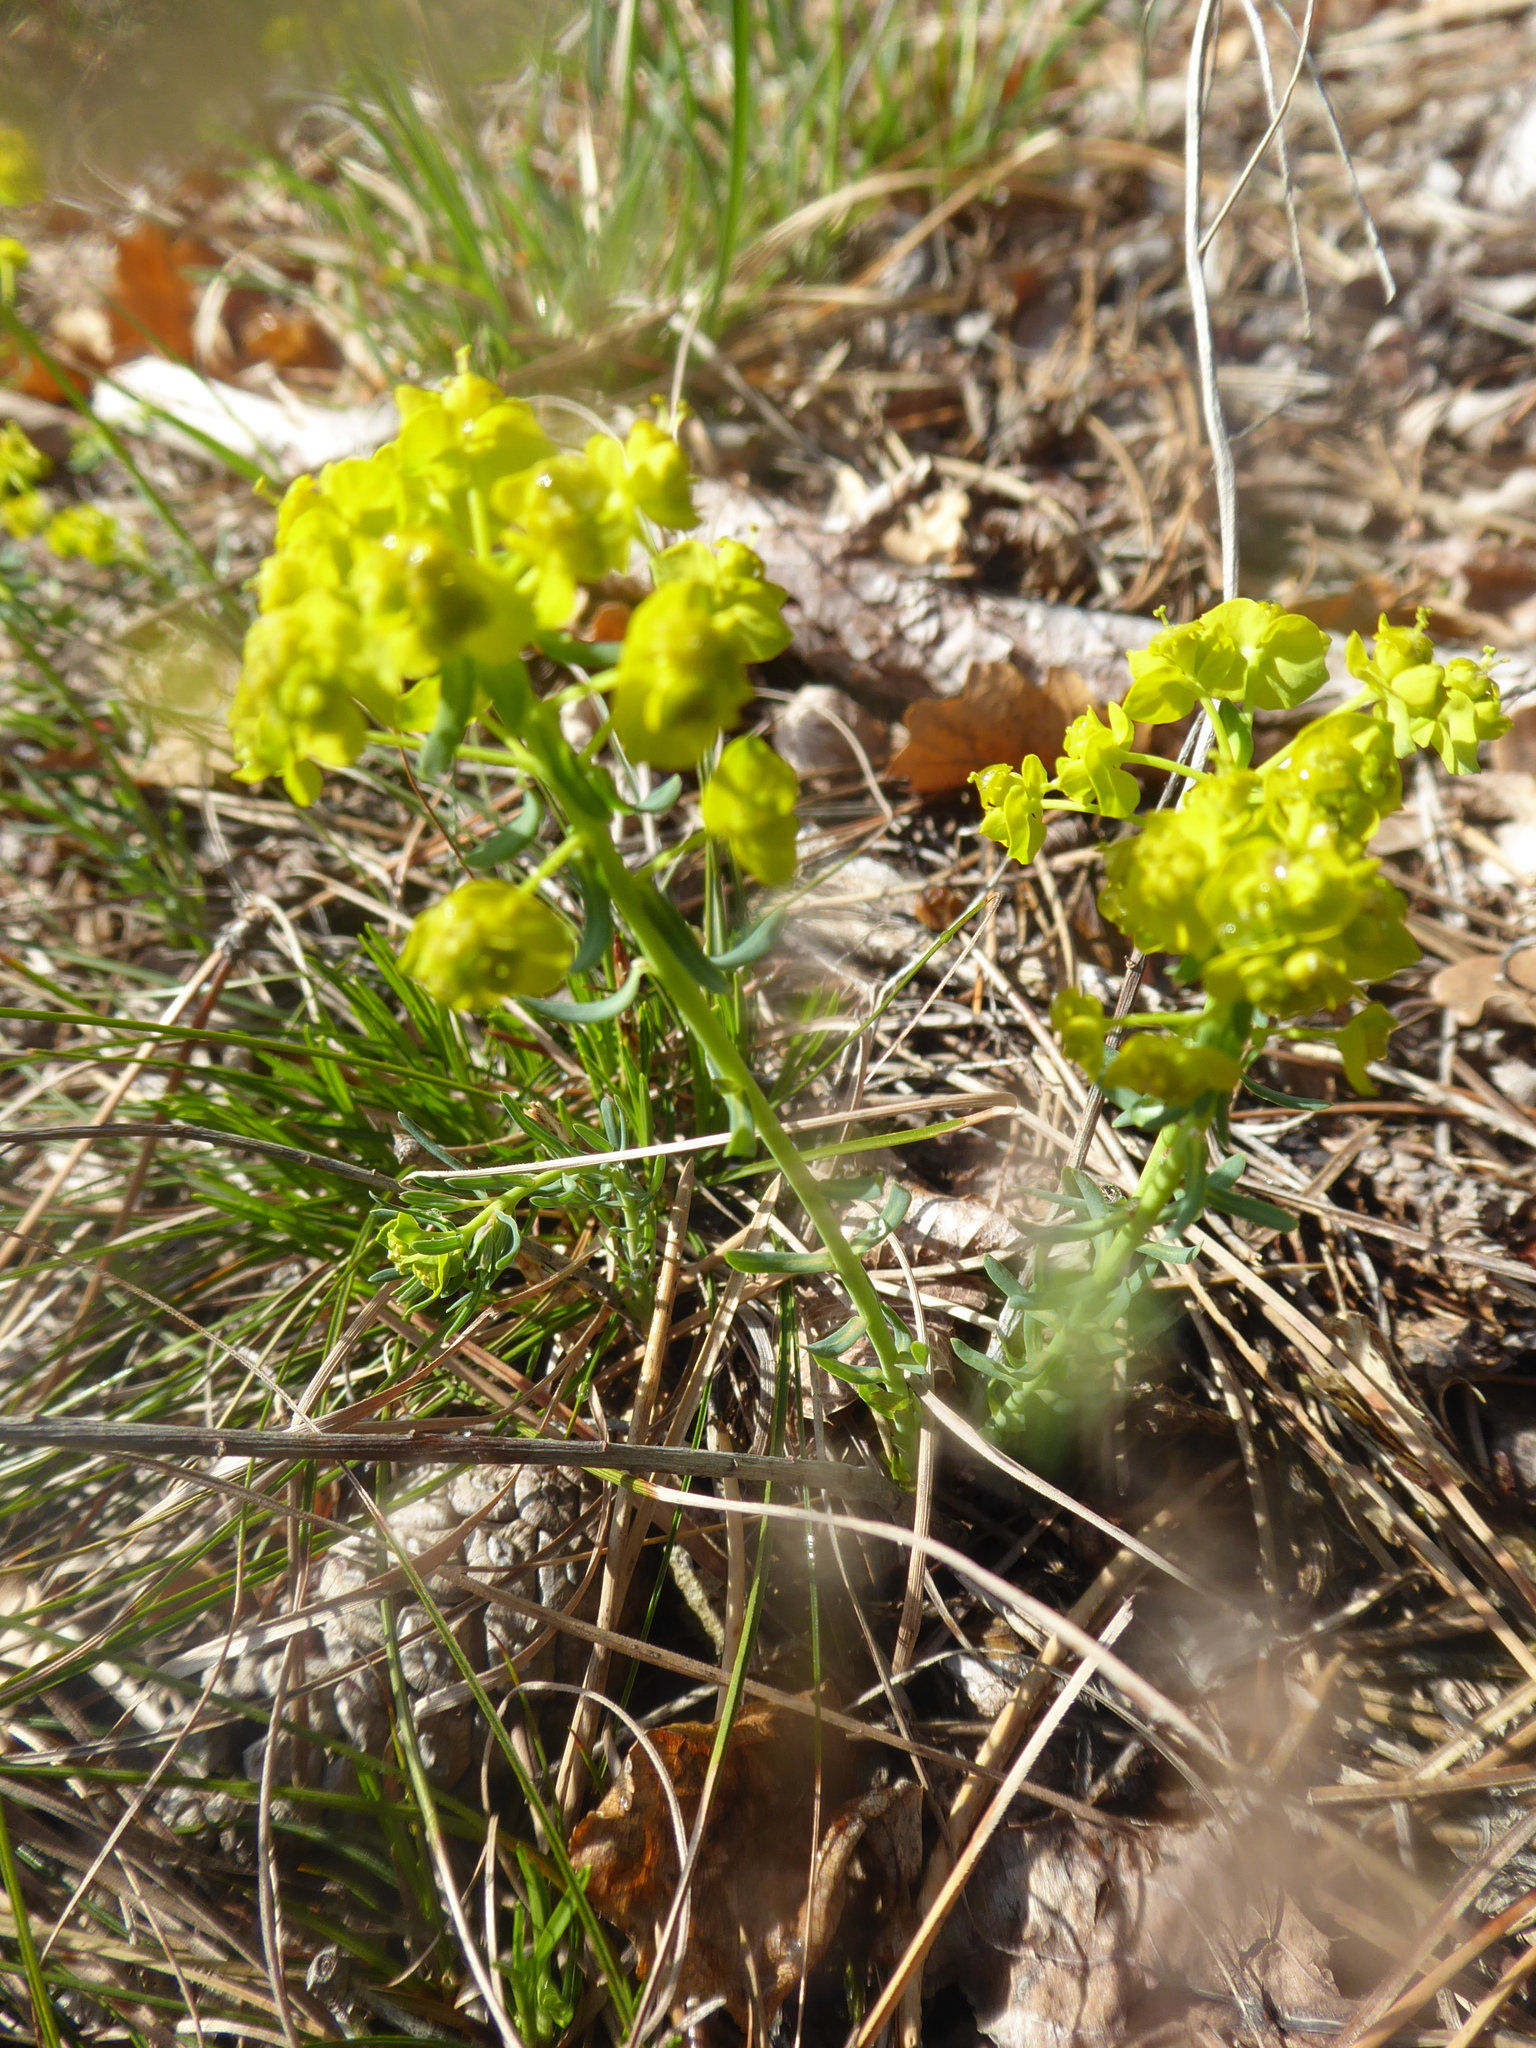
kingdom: Plantae
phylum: Tracheophyta
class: Magnoliopsida
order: Malpighiales
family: Euphorbiaceae
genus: Euphorbia
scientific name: Euphorbia cyparissias
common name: Cypress spurge
